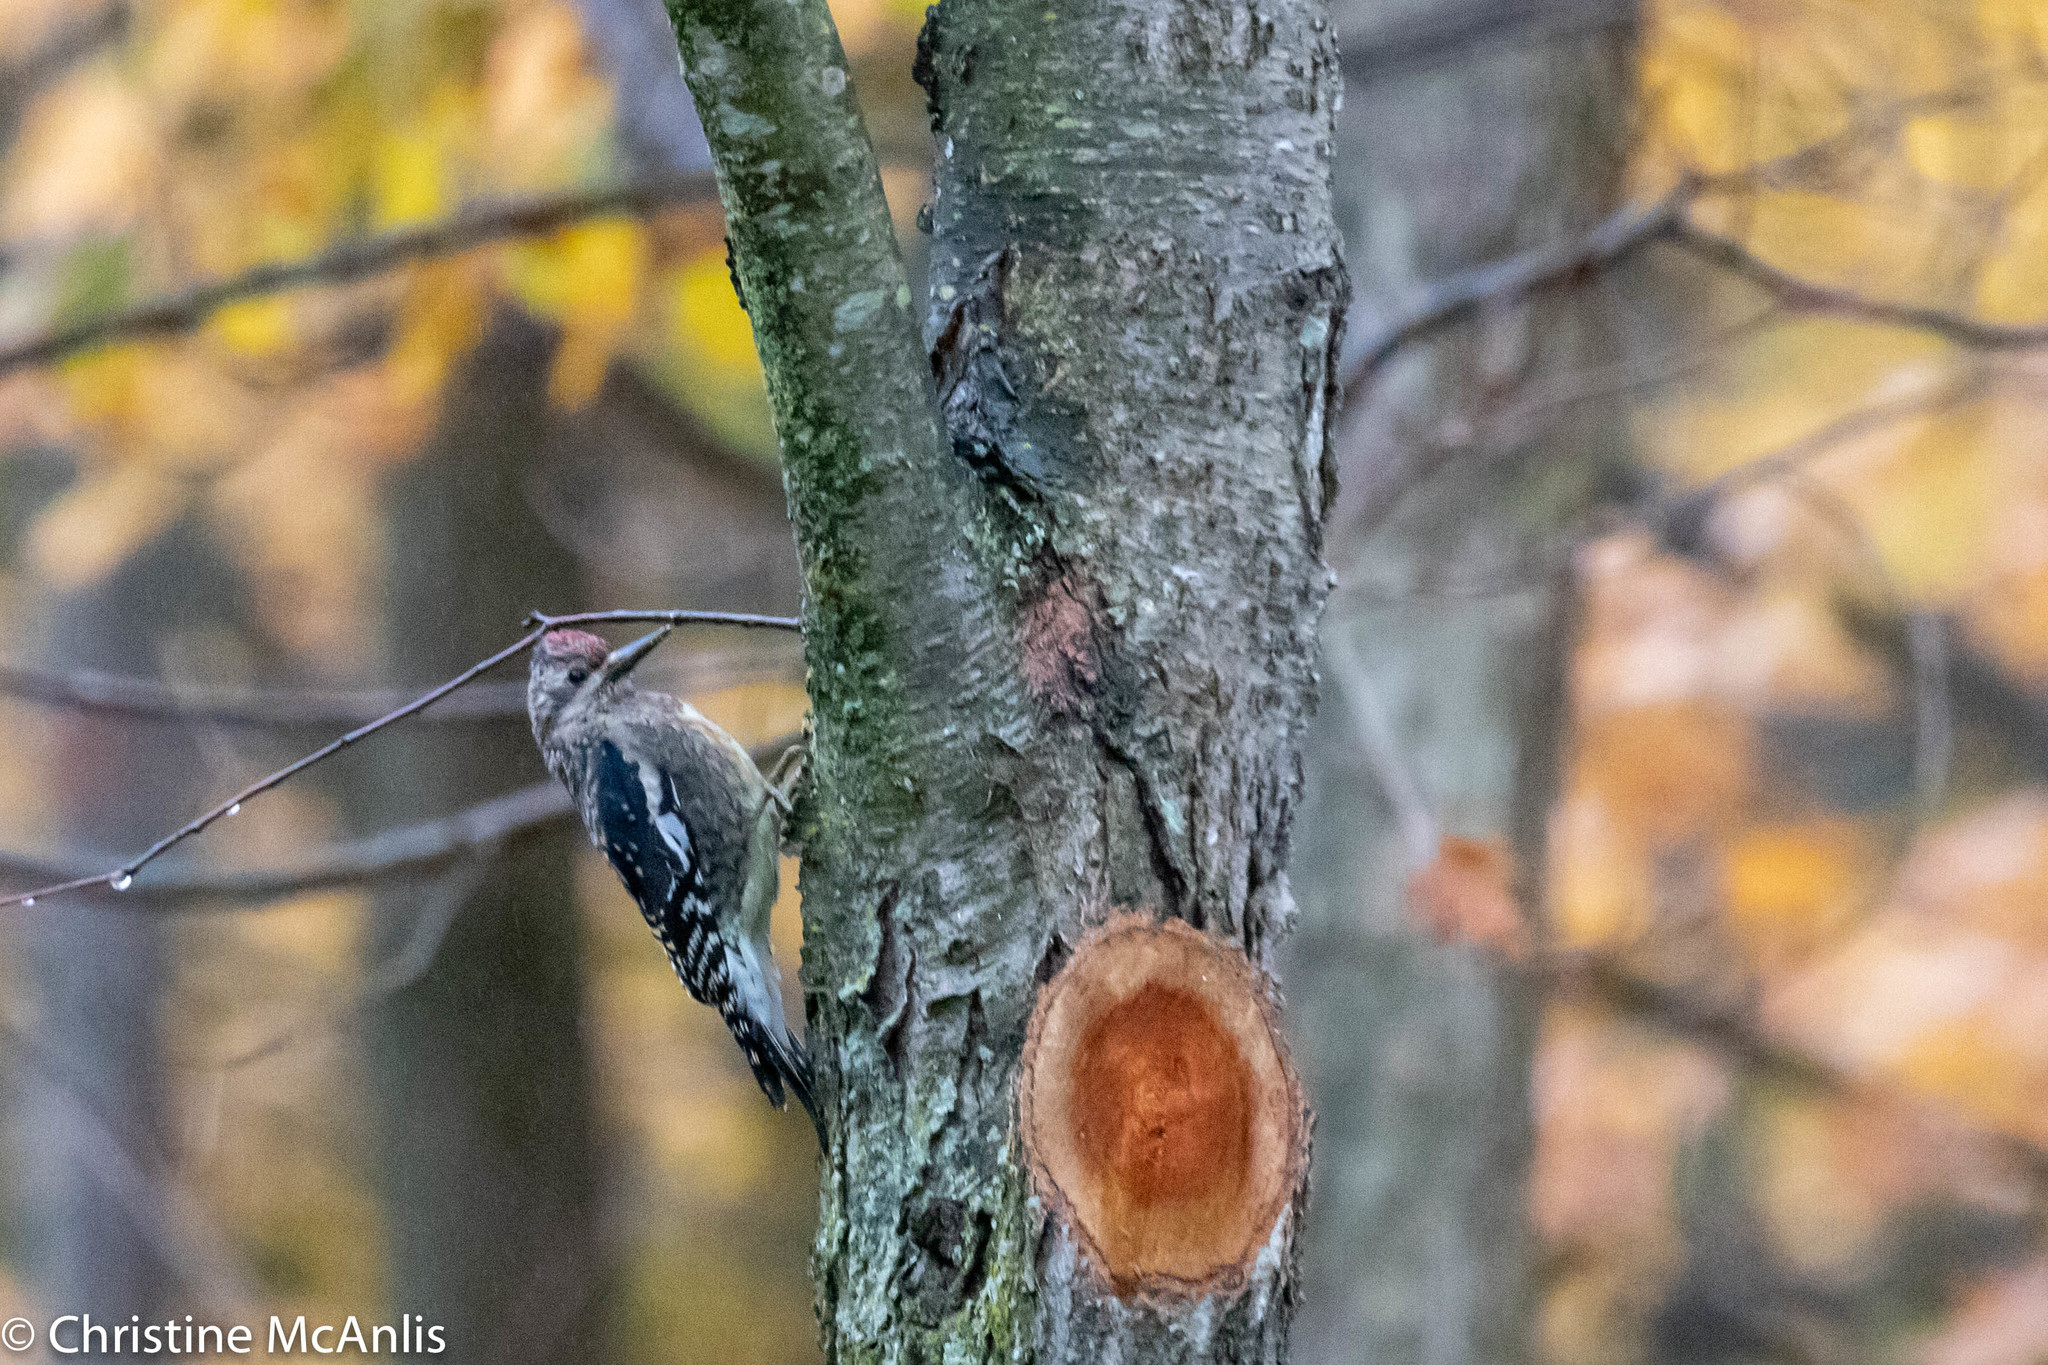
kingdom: Animalia
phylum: Chordata
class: Aves
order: Piciformes
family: Picidae
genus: Sphyrapicus
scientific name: Sphyrapicus varius
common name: Yellow-bellied sapsucker
